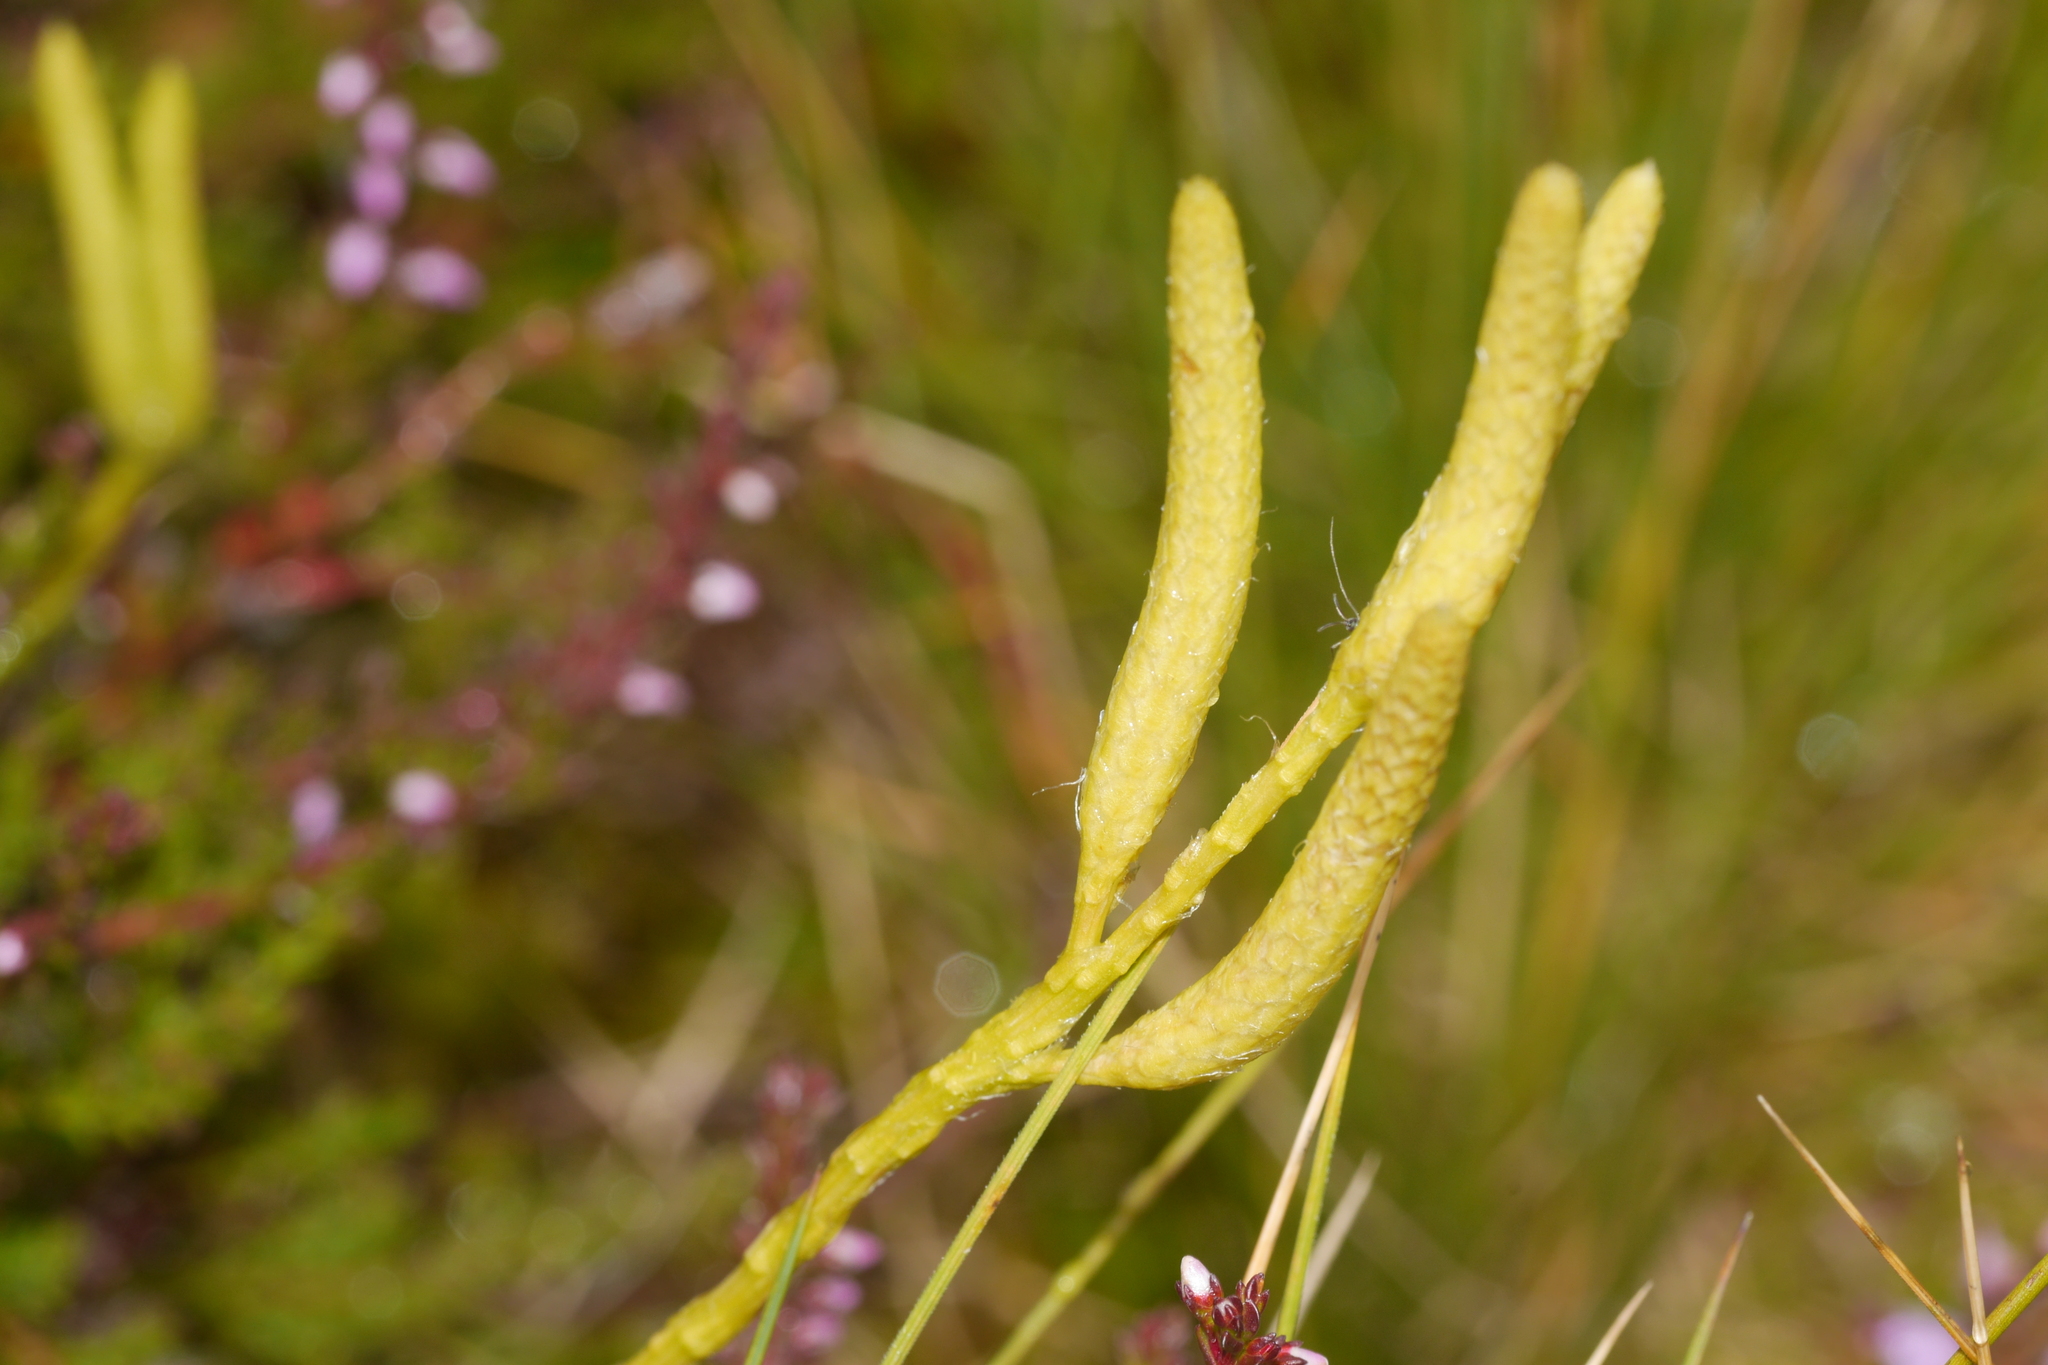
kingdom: Plantae
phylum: Tracheophyta
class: Lycopodiopsida
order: Lycopodiales
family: Lycopodiaceae
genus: Lycopodium
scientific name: Lycopodium clavatum
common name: Stag's-horn clubmoss
